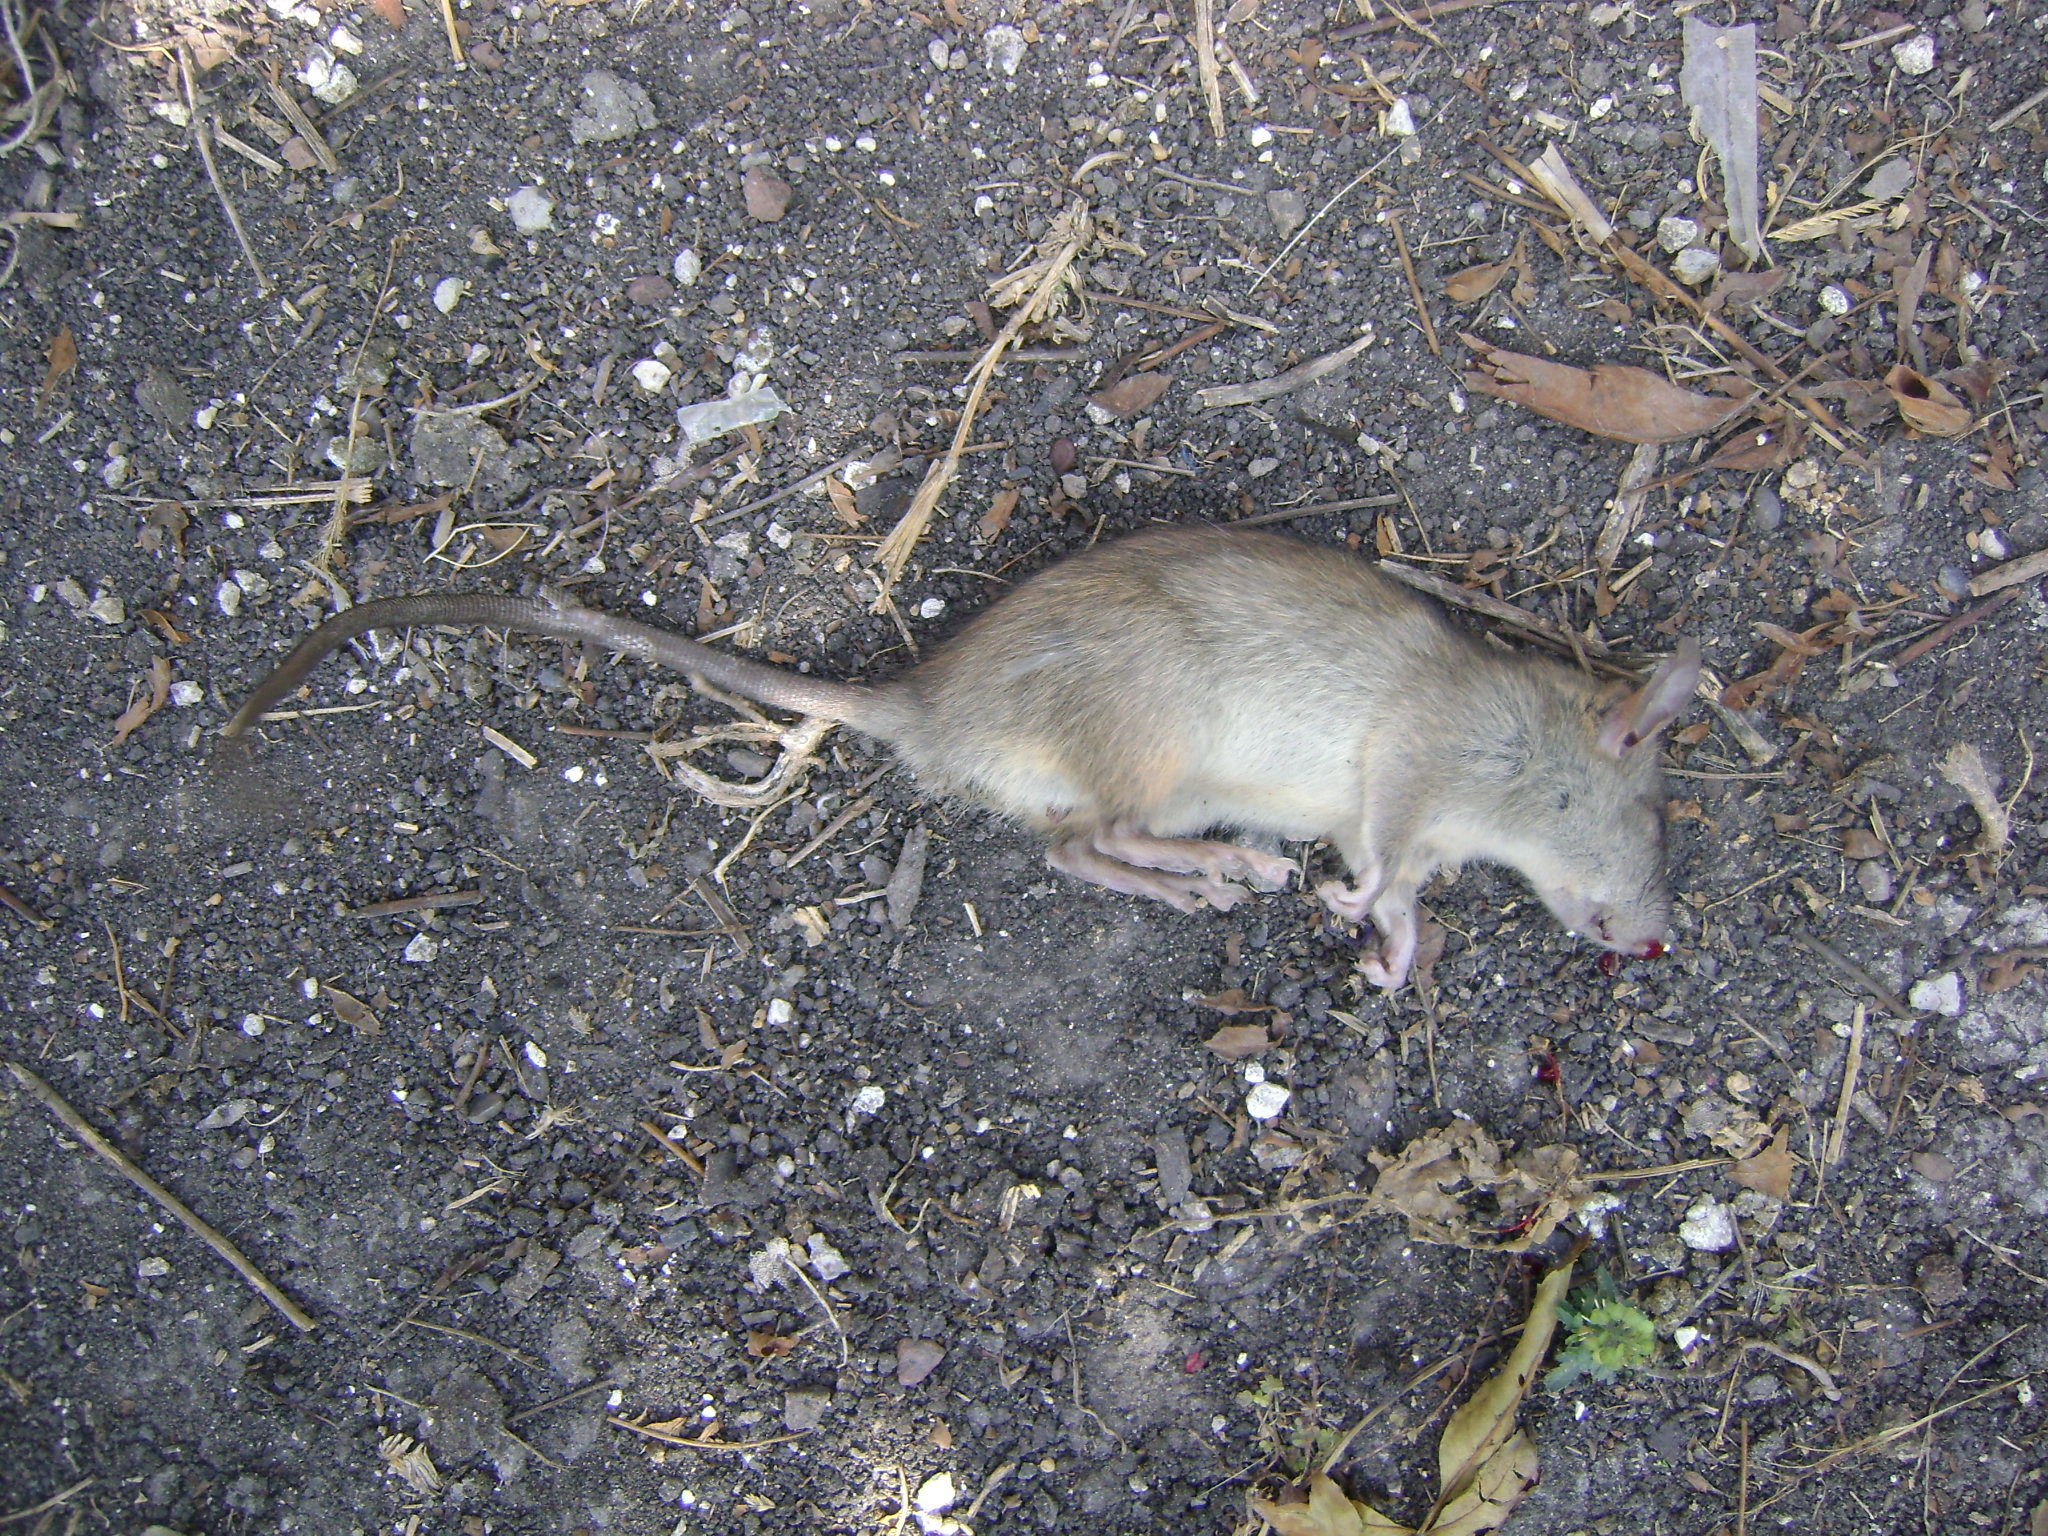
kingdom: Animalia
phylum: Chordata
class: Mammalia
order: Rodentia
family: Muridae
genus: Rattus
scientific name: Rattus rattus
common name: Black rat
